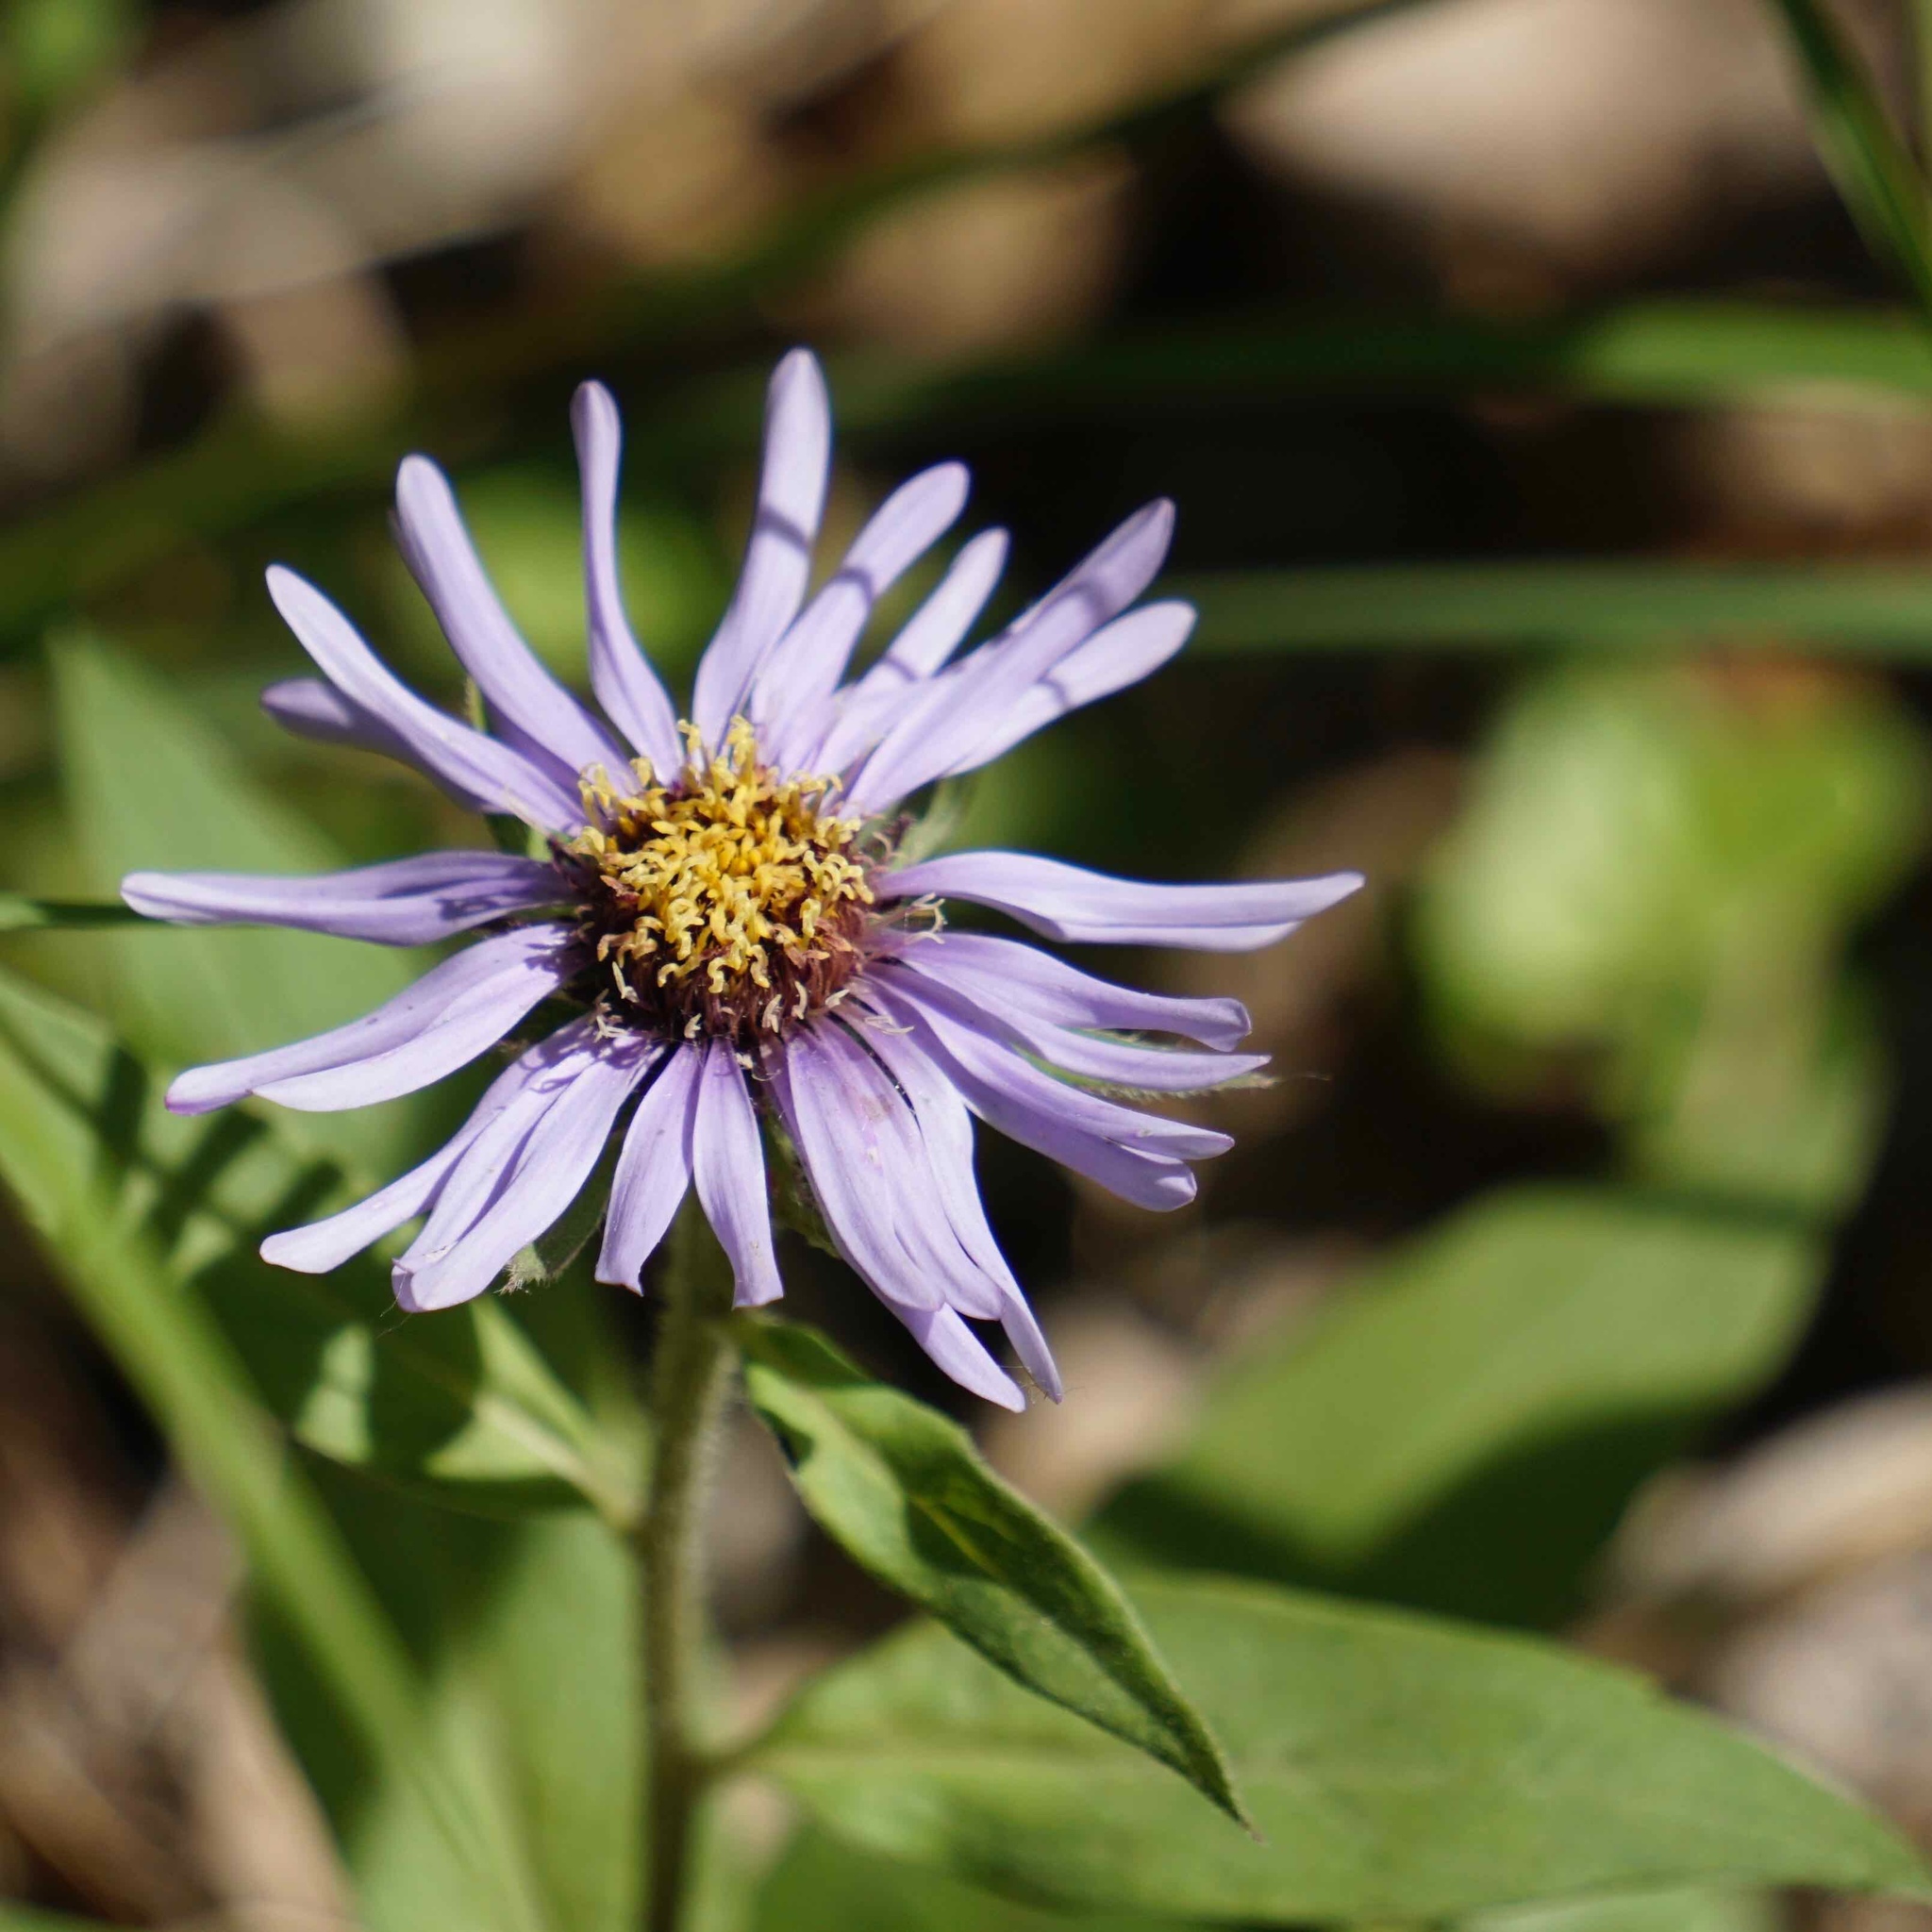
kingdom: Plantae
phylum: Tracheophyta
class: Magnoliopsida
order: Asterales
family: Asteraceae
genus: Eurybia
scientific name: Eurybia sibirica
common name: Arctic aster
